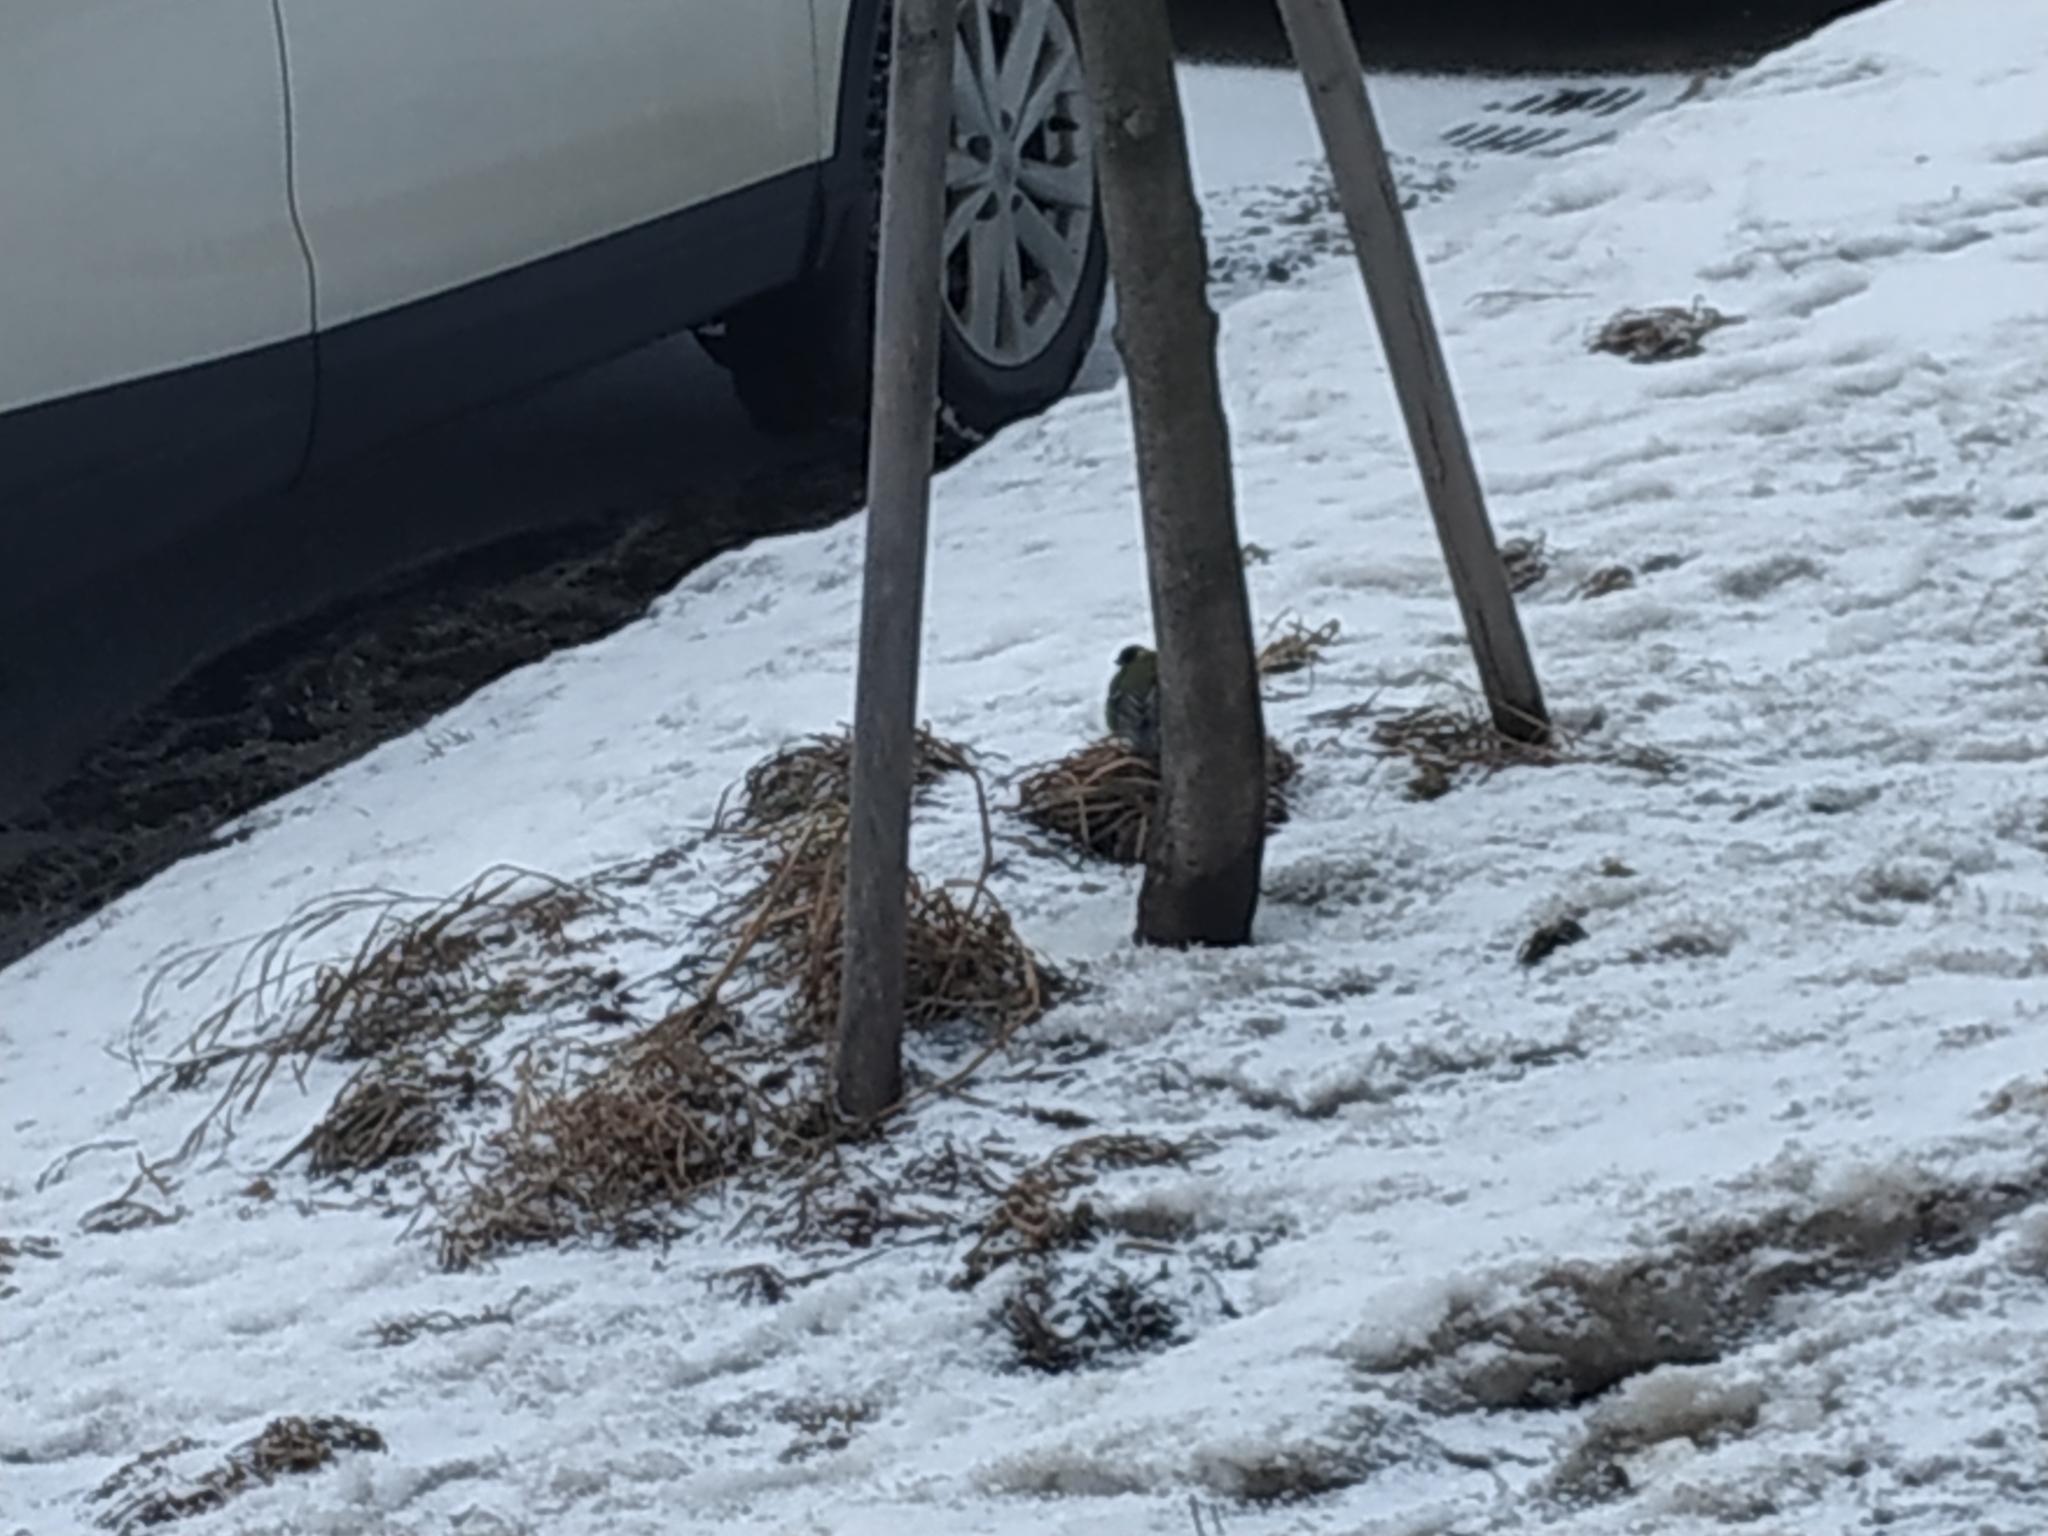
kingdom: Animalia
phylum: Chordata
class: Aves
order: Passeriformes
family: Paridae
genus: Parus
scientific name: Parus major
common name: Great tit
